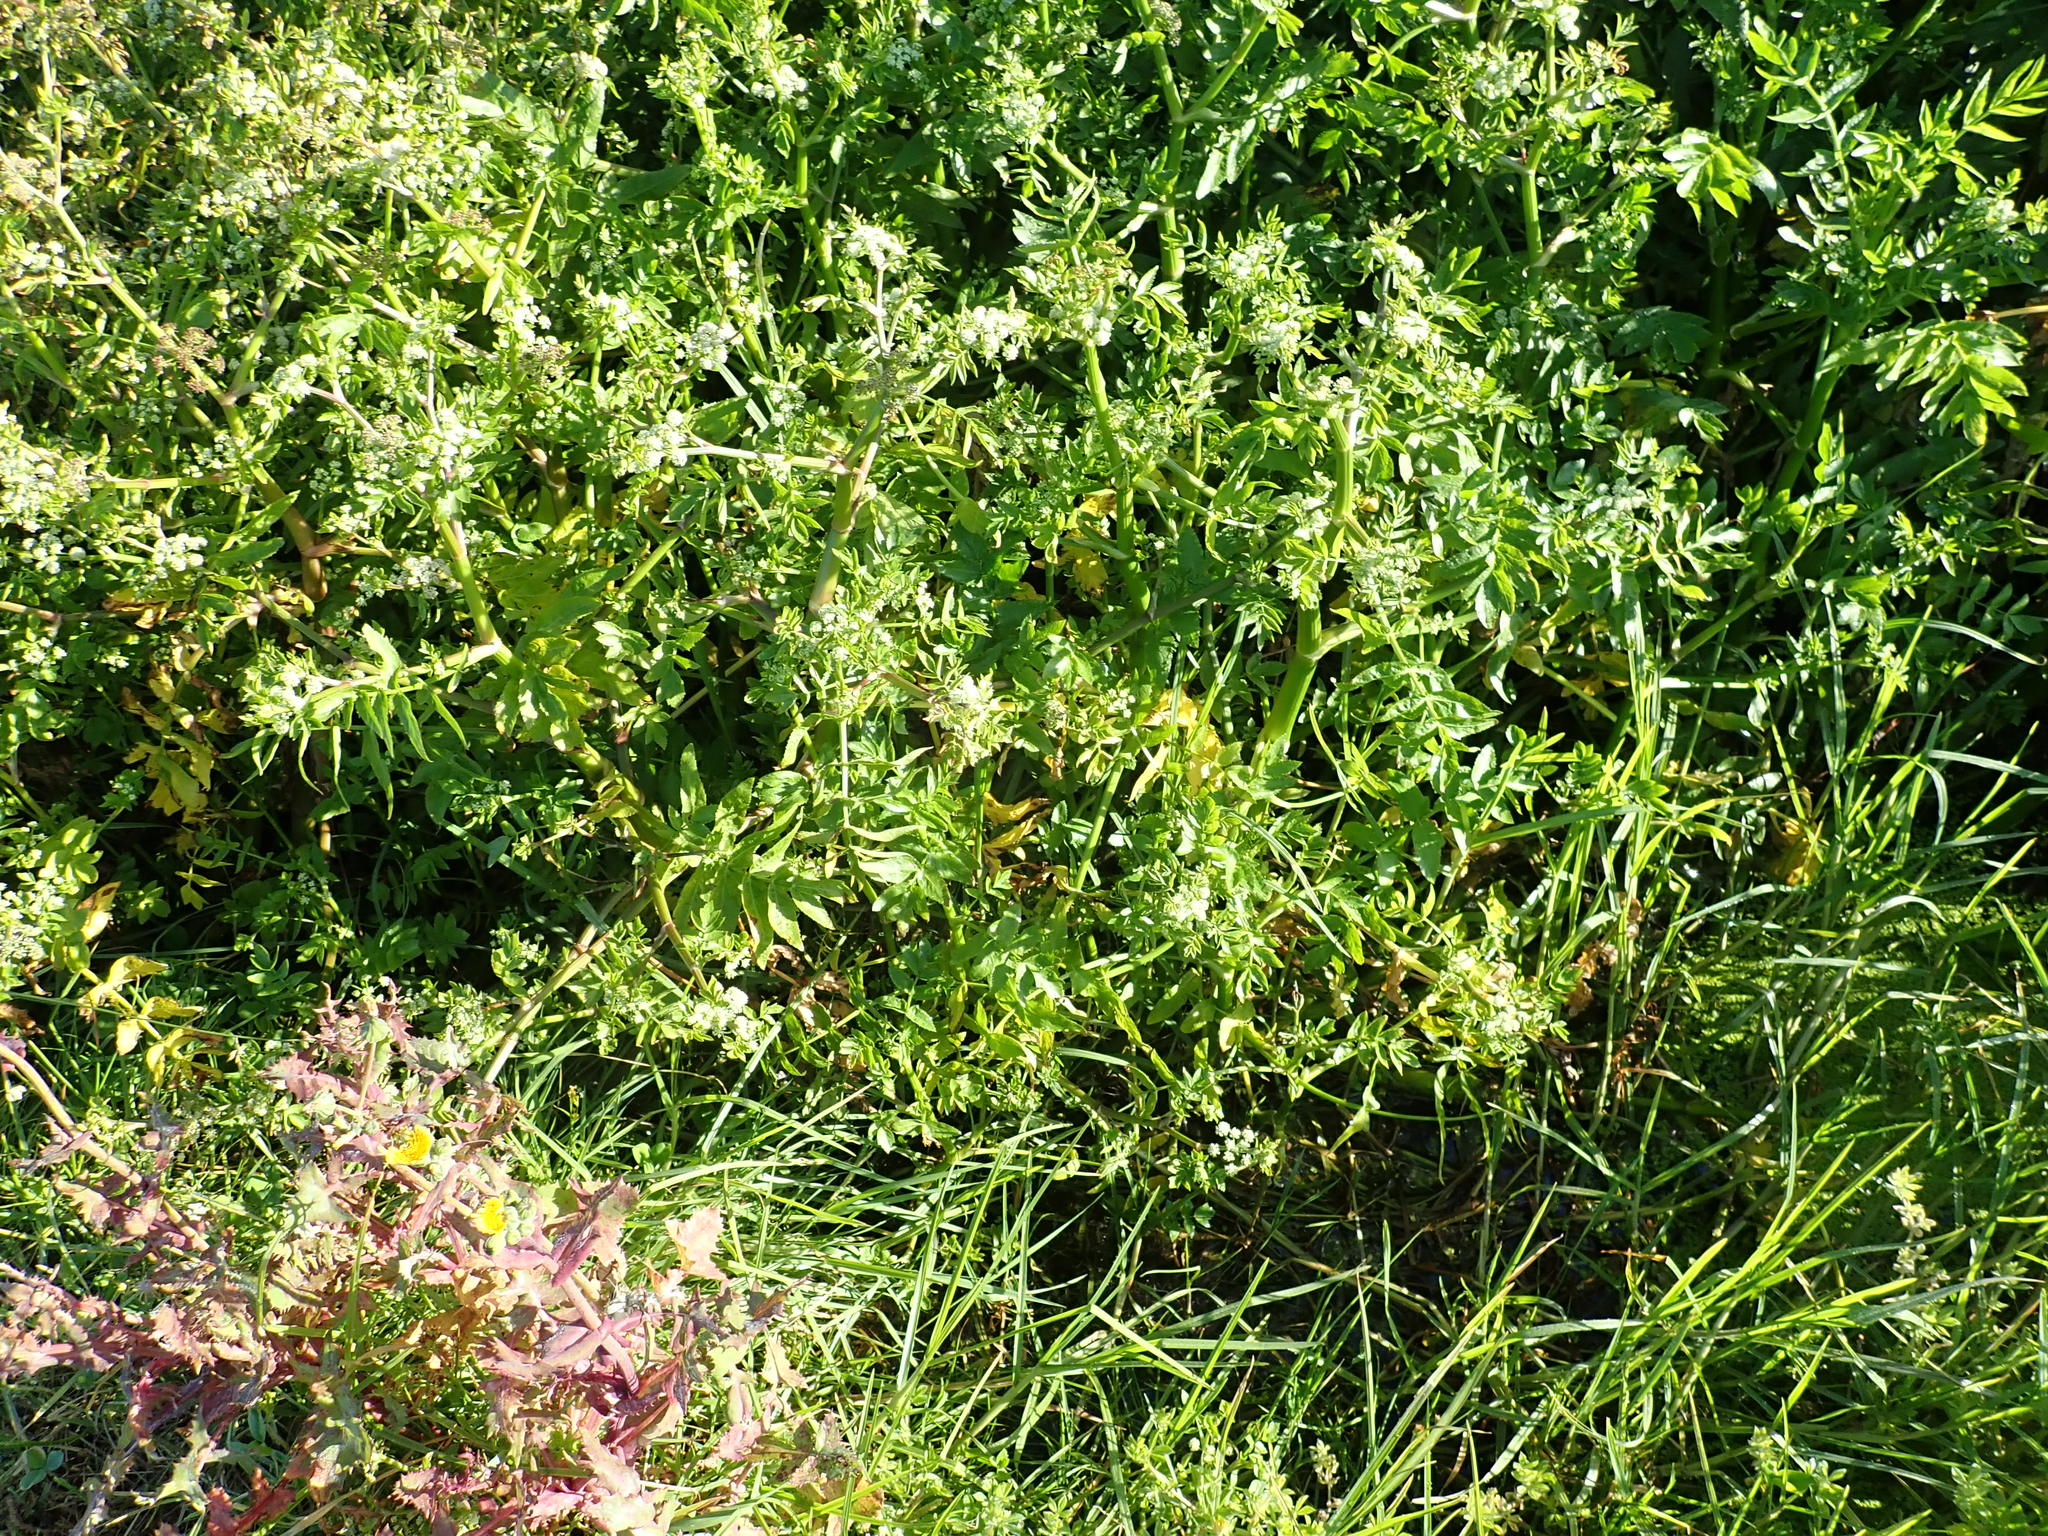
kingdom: Plantae
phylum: Tracheophyta
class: Magnoliopsida
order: Apiales
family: Apiaceae
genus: Helosciadium
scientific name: Helosciadium nodiflorum
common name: Fool's-watercress
